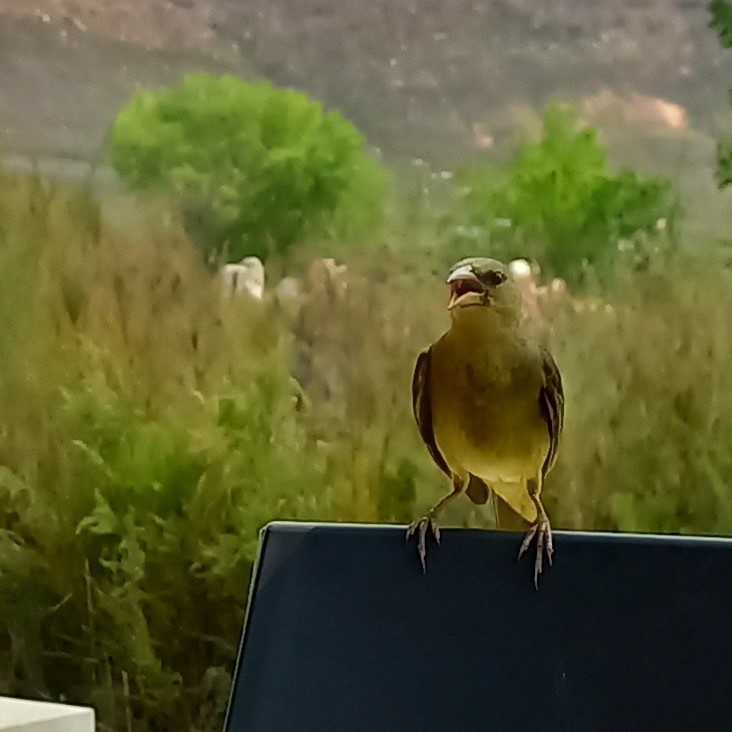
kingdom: Animalia
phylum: Chordata
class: Aves
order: Passeriformes
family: Ploceidae
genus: Ploceus
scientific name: Ploceus capensis
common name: Cape weaver
